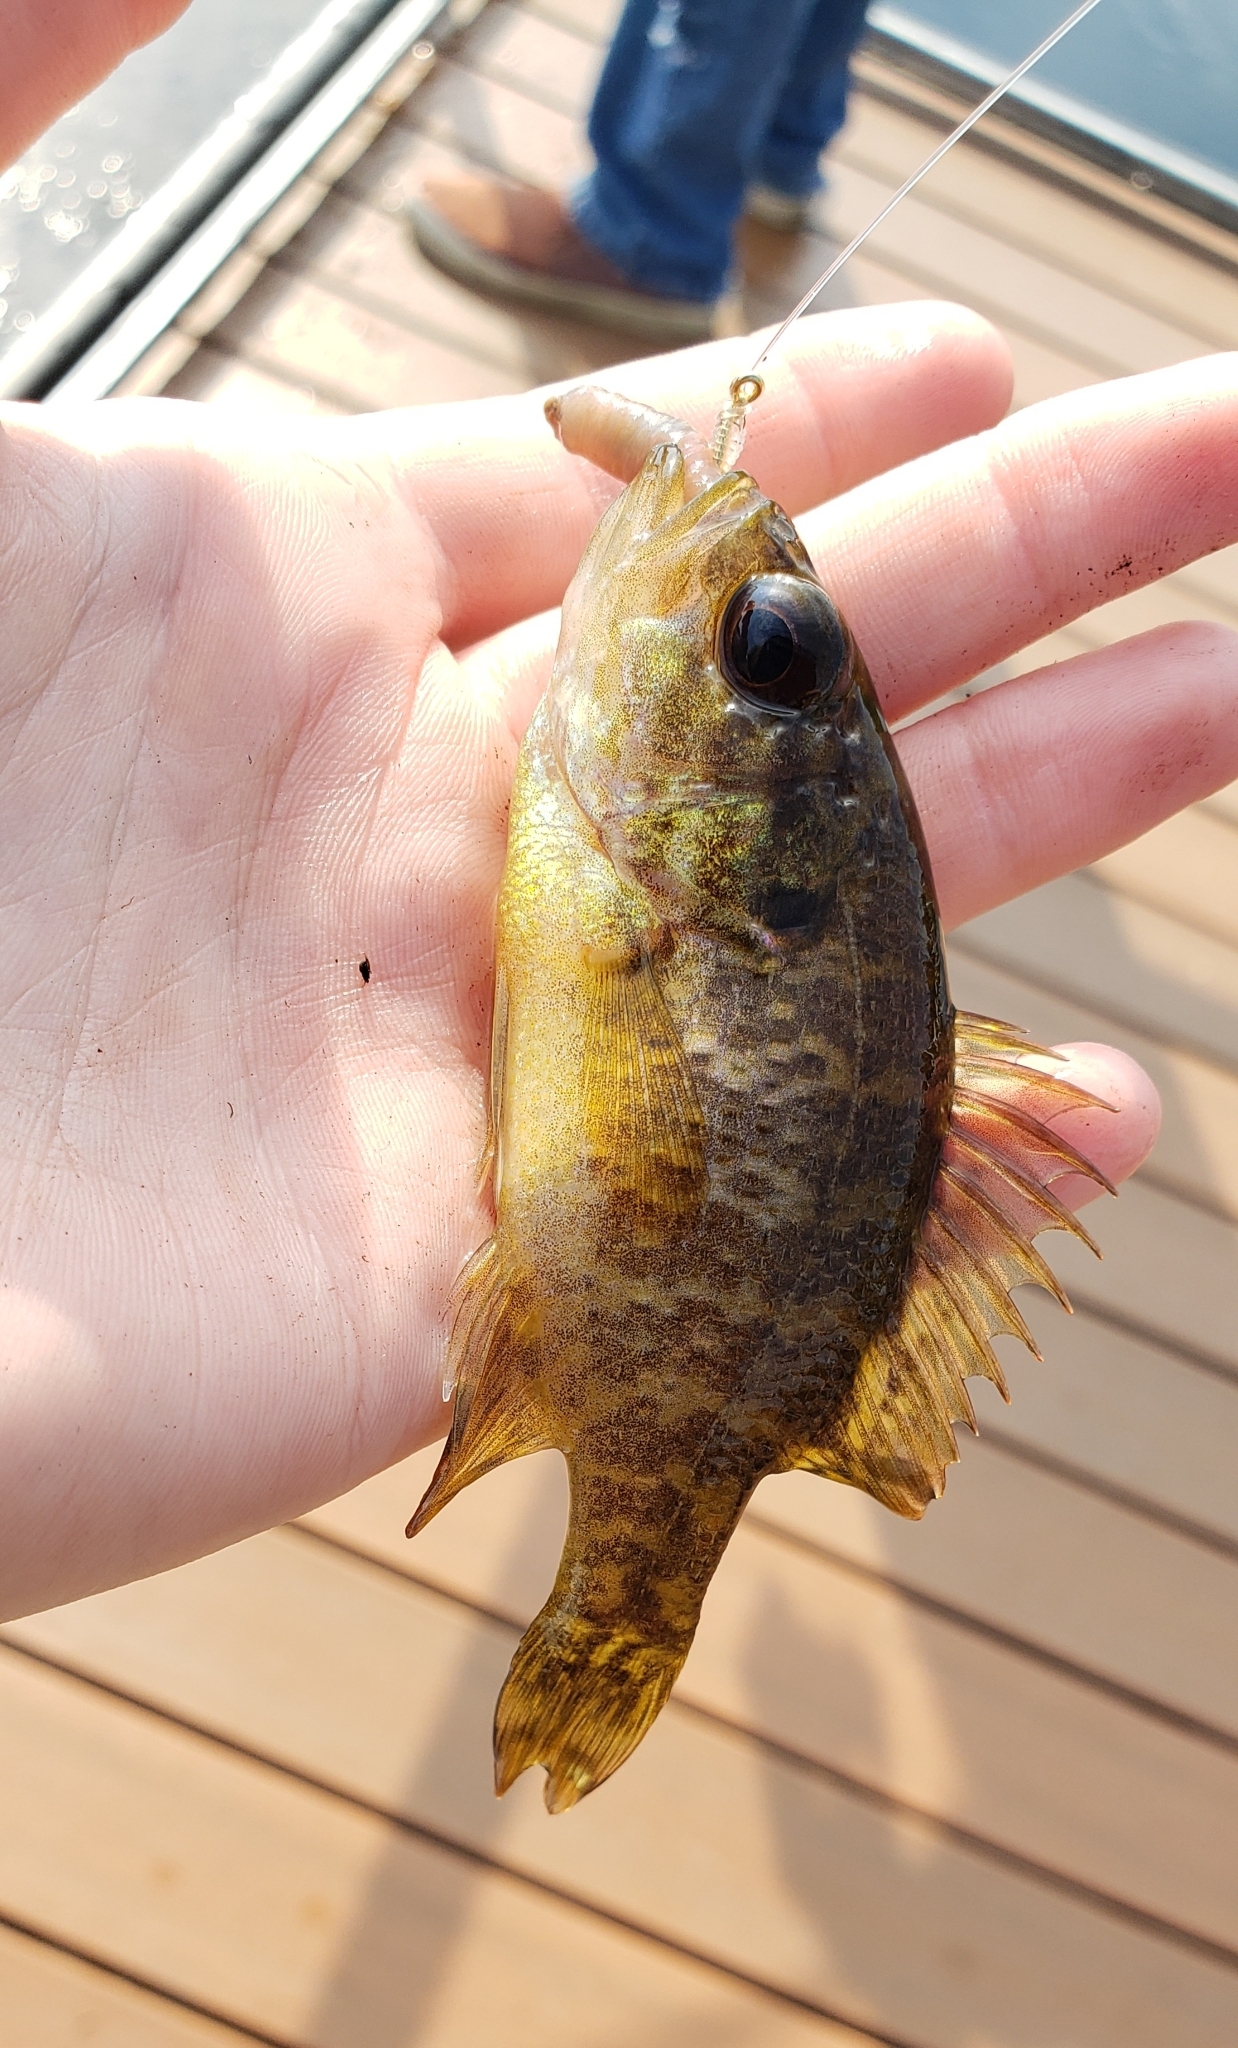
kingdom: Animalia
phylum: Chordata
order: Perciformes
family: Centrarchidae
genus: Lepomis
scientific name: Lepomis gulosus
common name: Warmouth
